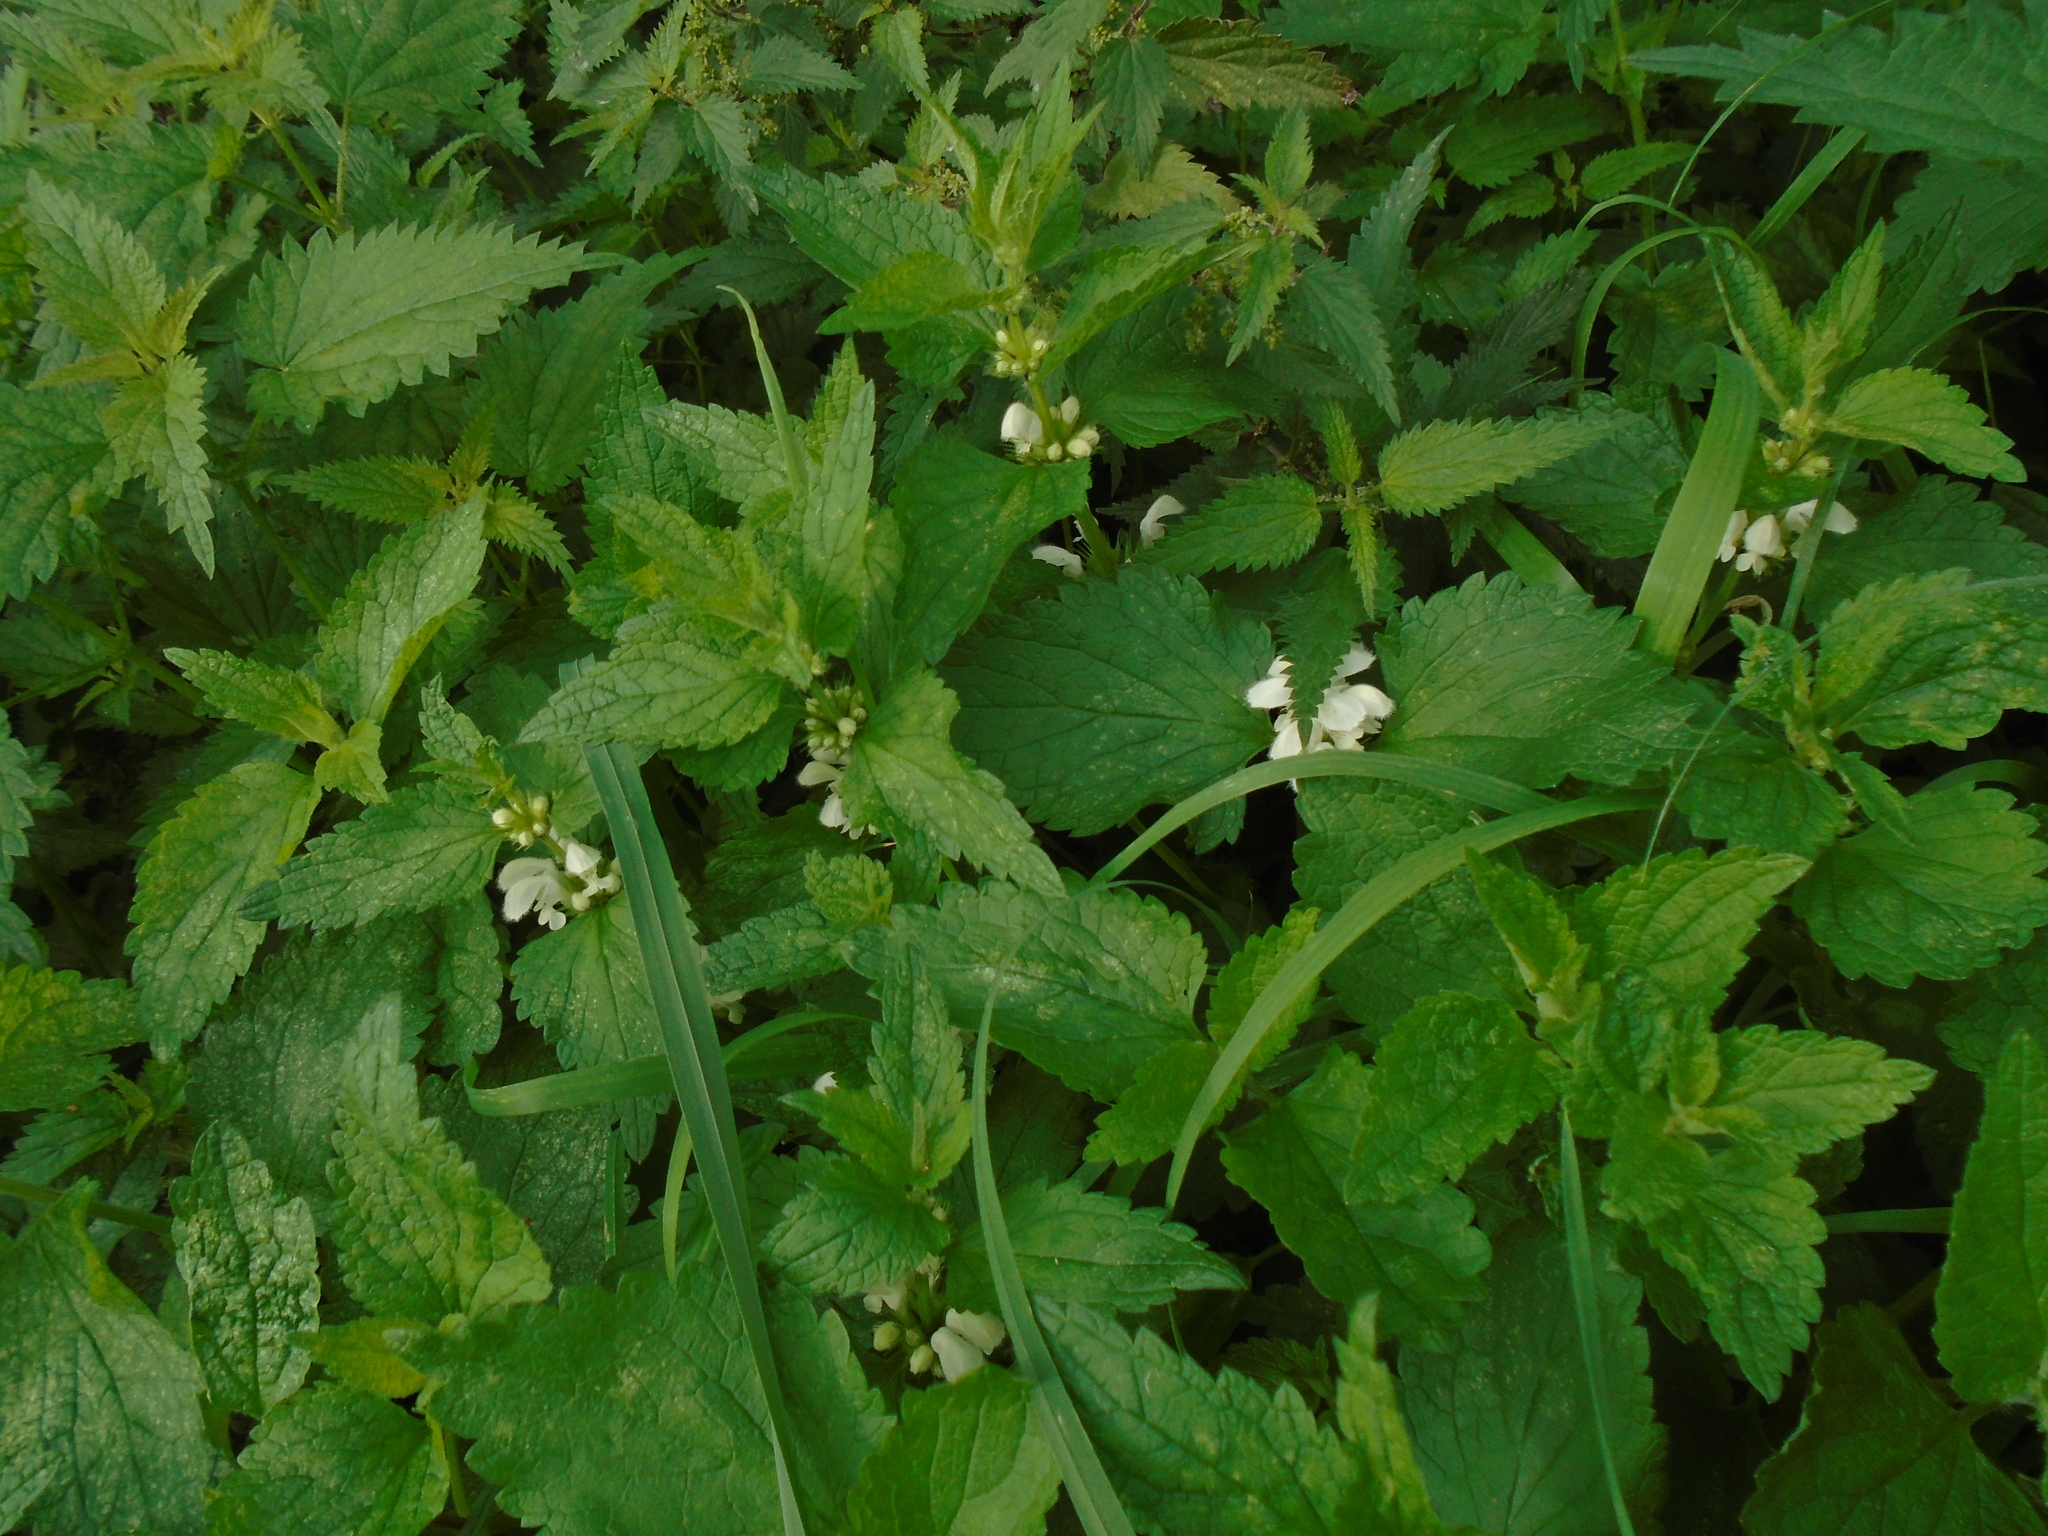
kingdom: Plantae
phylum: Tracheophyta
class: Magnoliopsida
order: Lamiales
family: Lamiaceae
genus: Lamium
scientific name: Lamium album
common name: White dead-nettle
